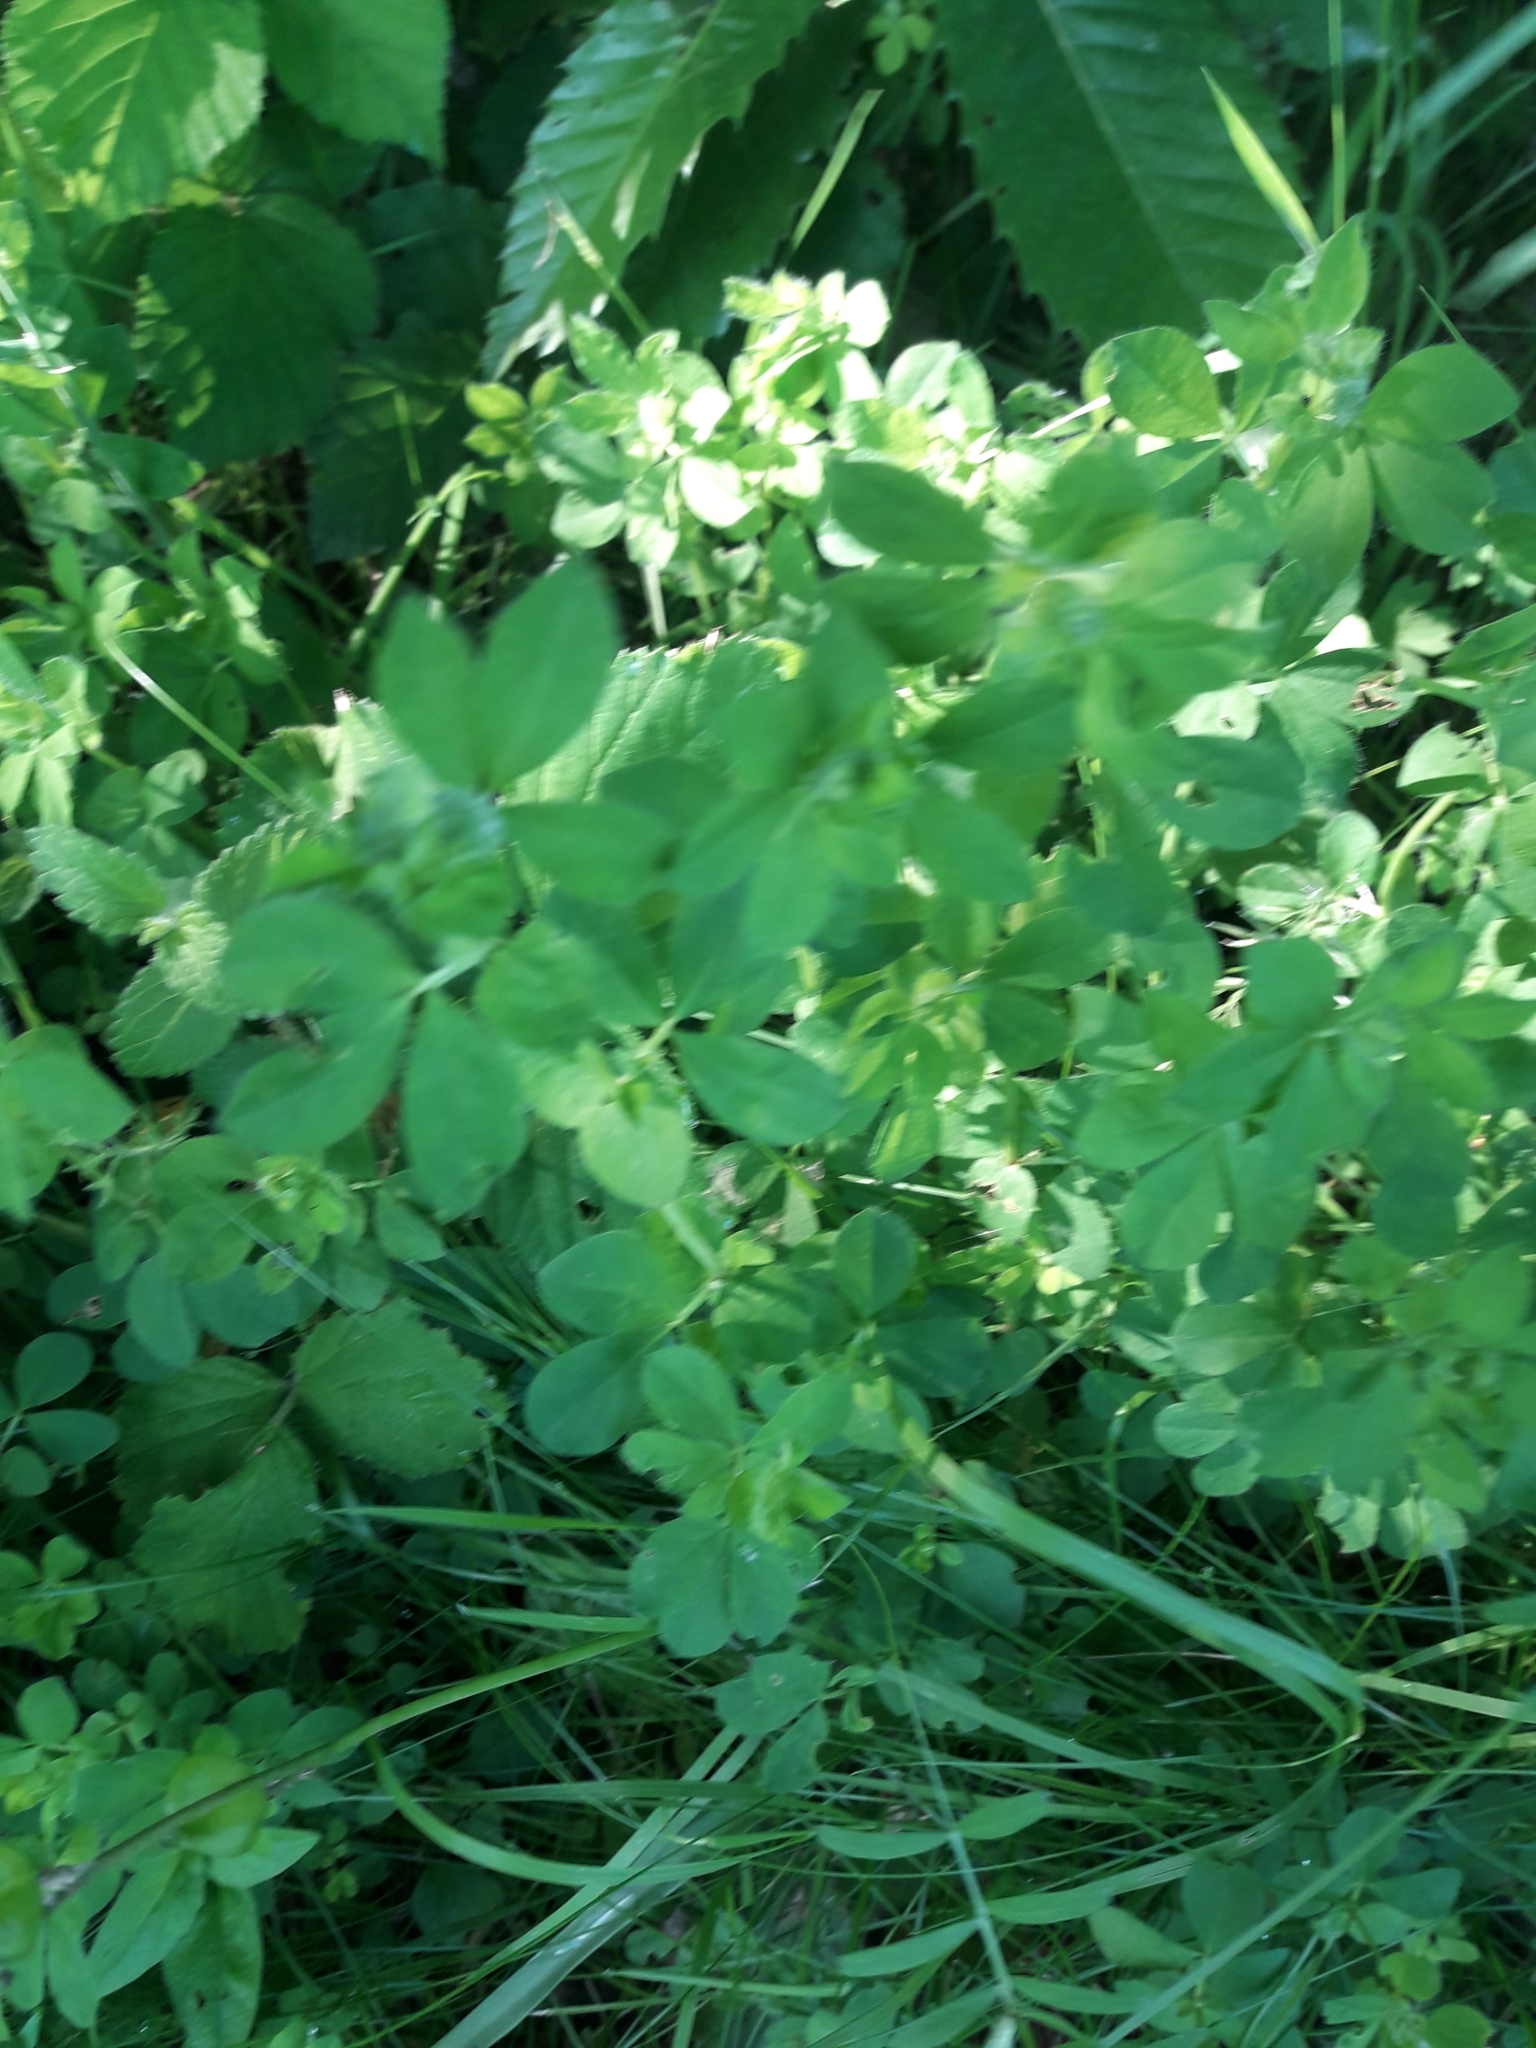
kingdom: Plantae
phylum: Tracheophyta
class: Magnoliopsida
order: Fabales
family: Fabaceae
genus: Lotus
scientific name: Lotus pedunculatus
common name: Greater birdsfoot-trefoil
